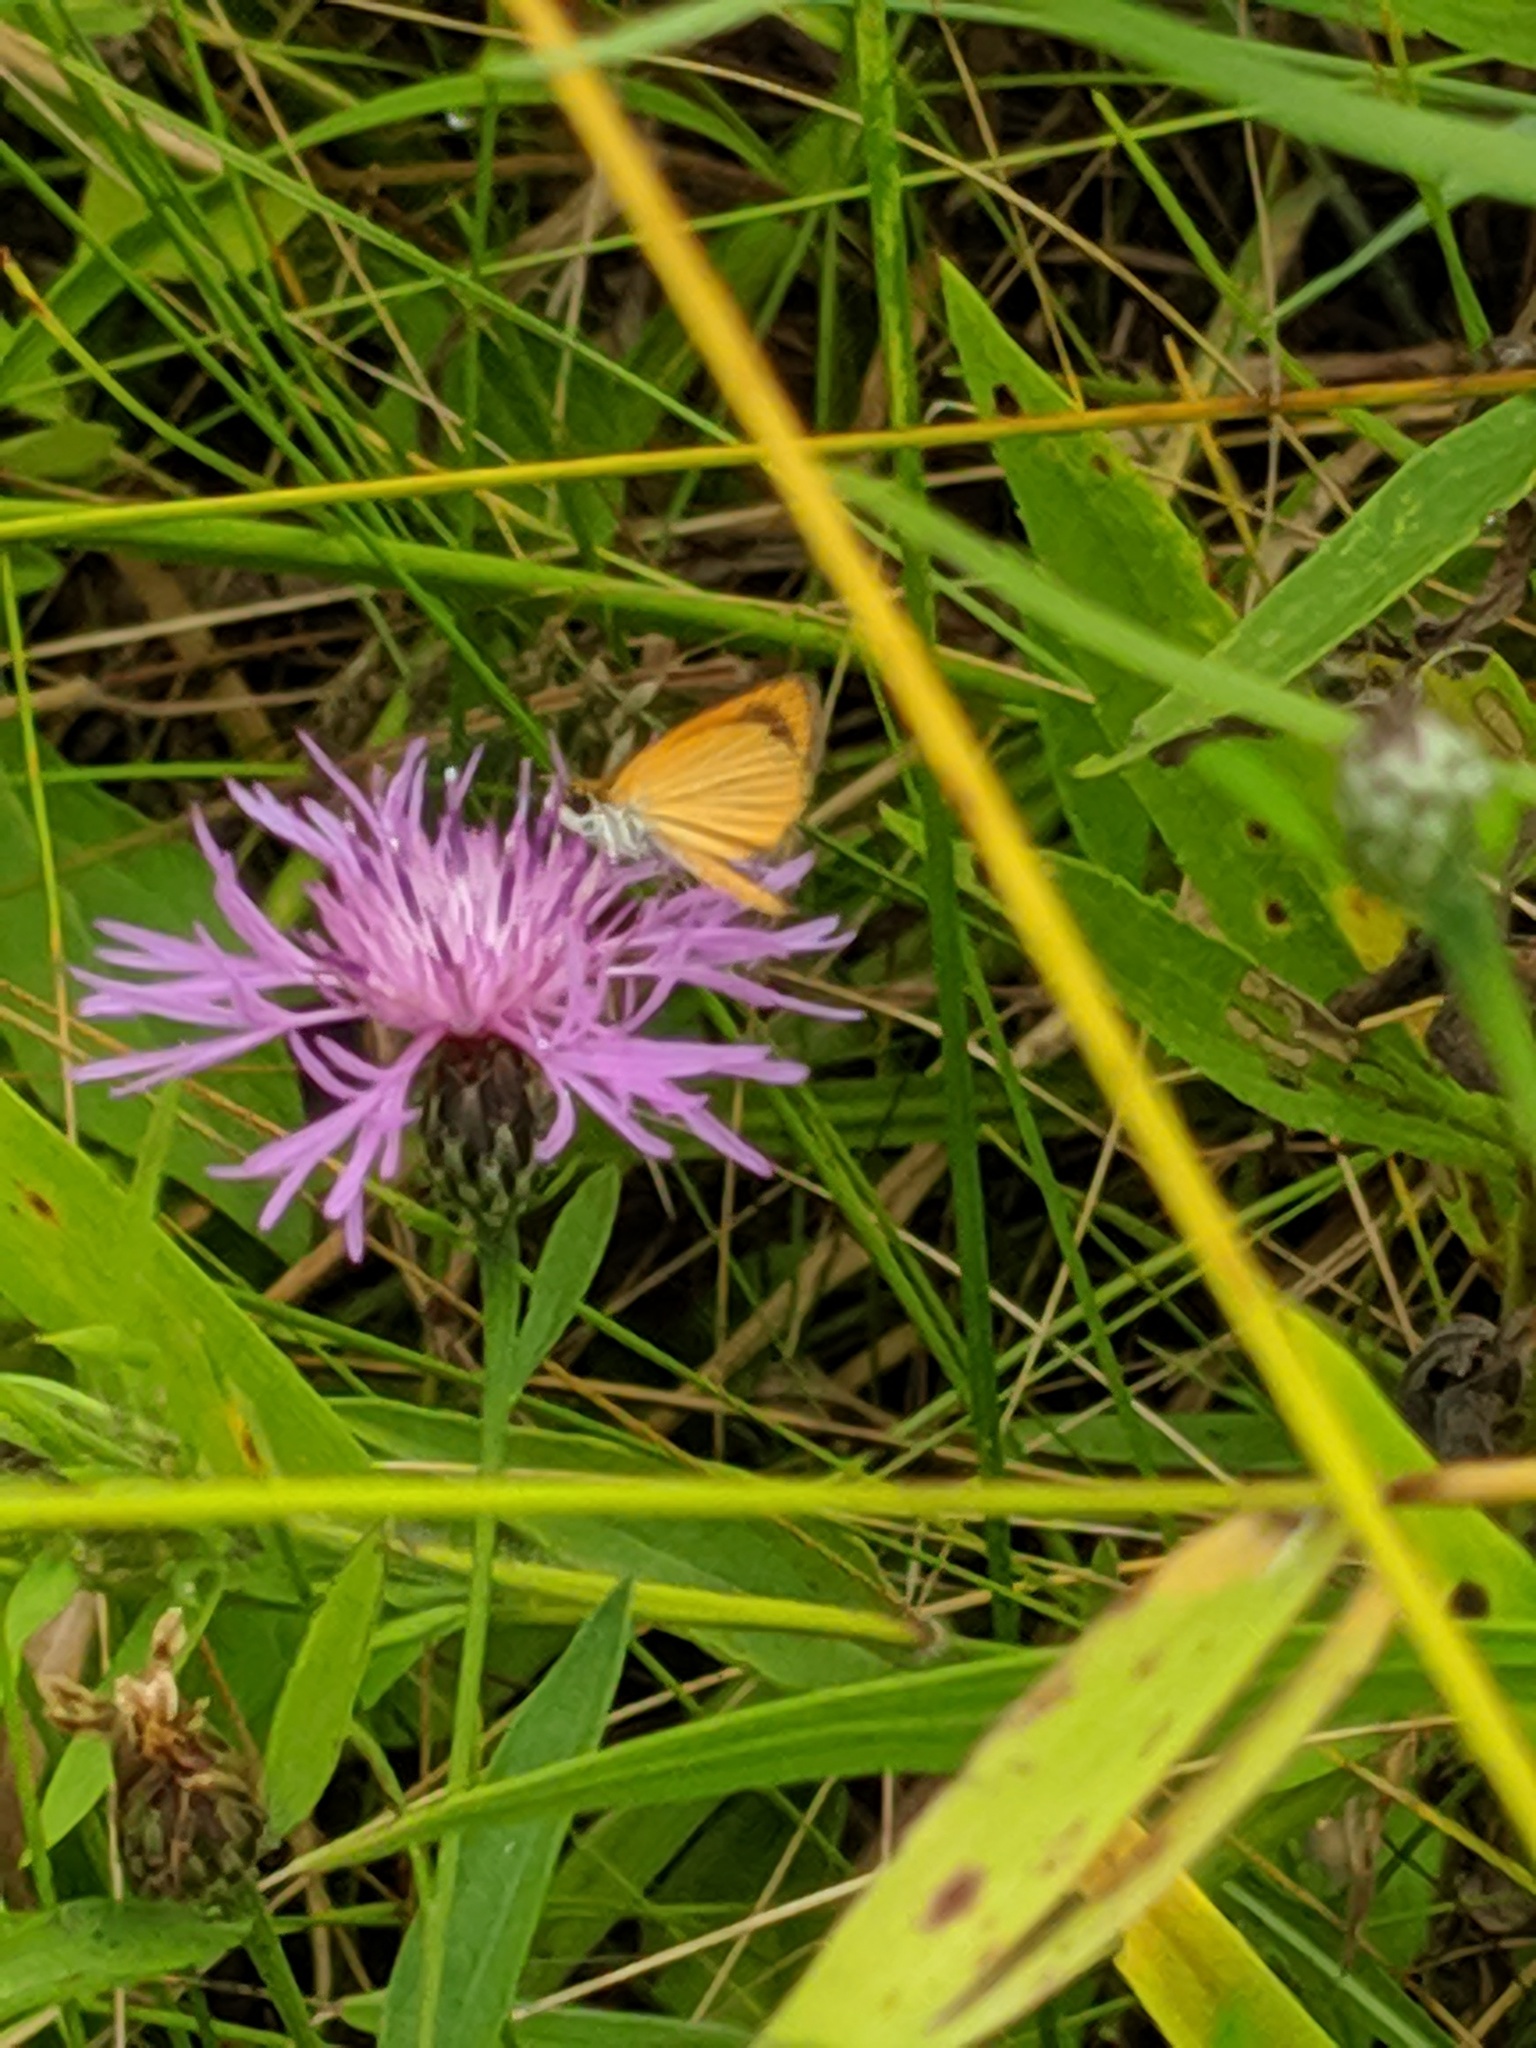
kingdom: Animalia
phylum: Arthropoda
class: Insecta
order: Lepidoptera
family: Hesperiidae
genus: Ancyloxypha
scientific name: Ancyloxypha numitor
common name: Least skipper
